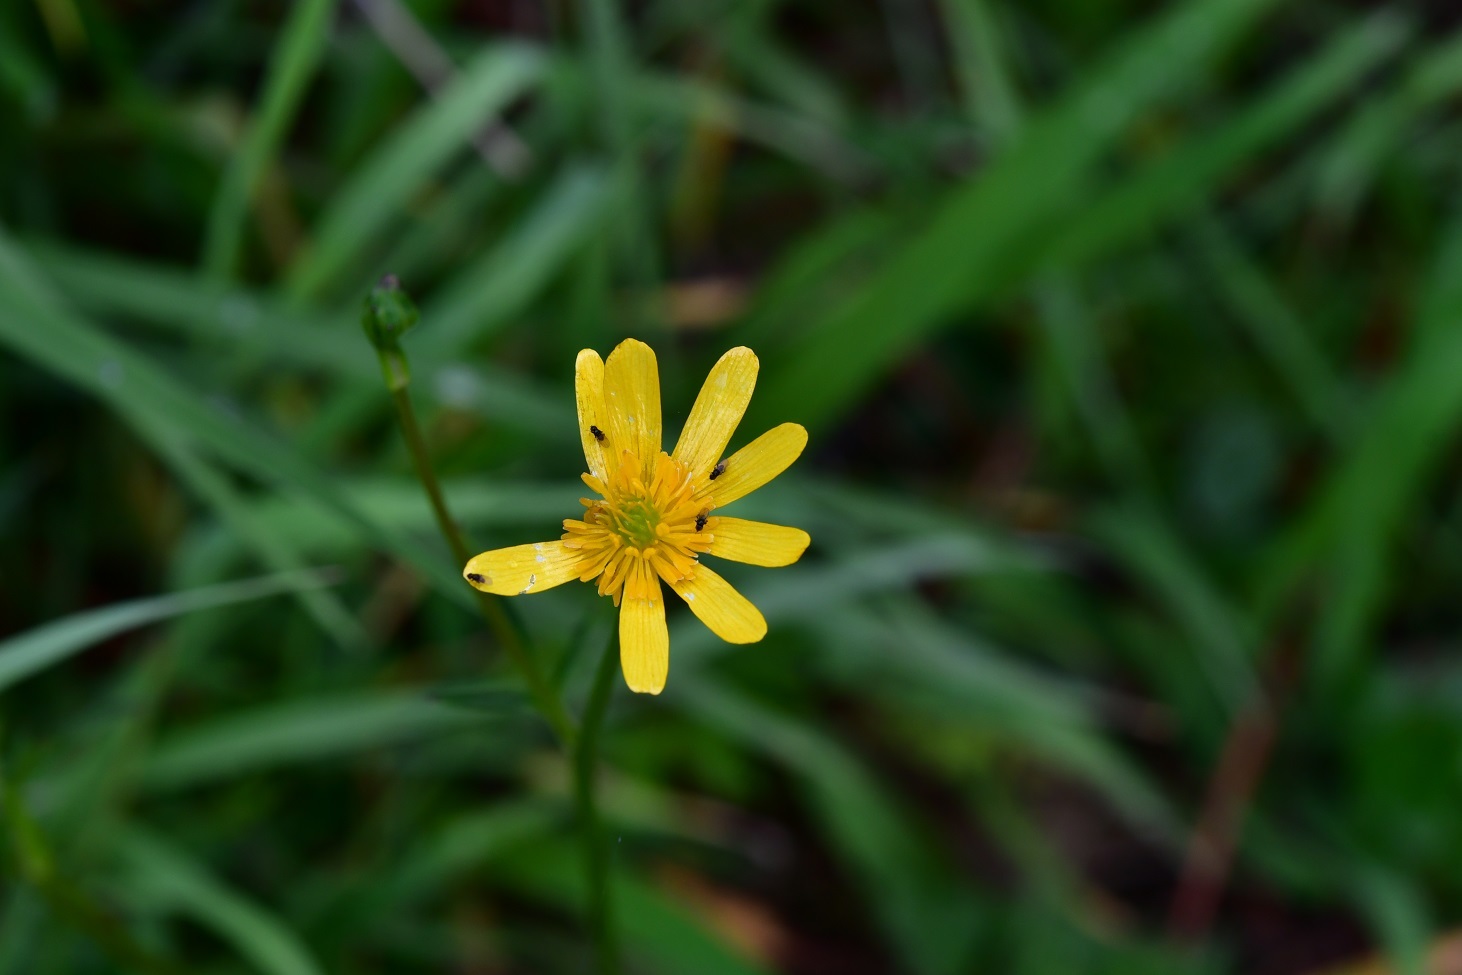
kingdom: Plantae
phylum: Tracheophyta
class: Magnoliopsida
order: Ranunculales
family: Ranunculaceae
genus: Ranunculus
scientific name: Ranunculus petiolaris
